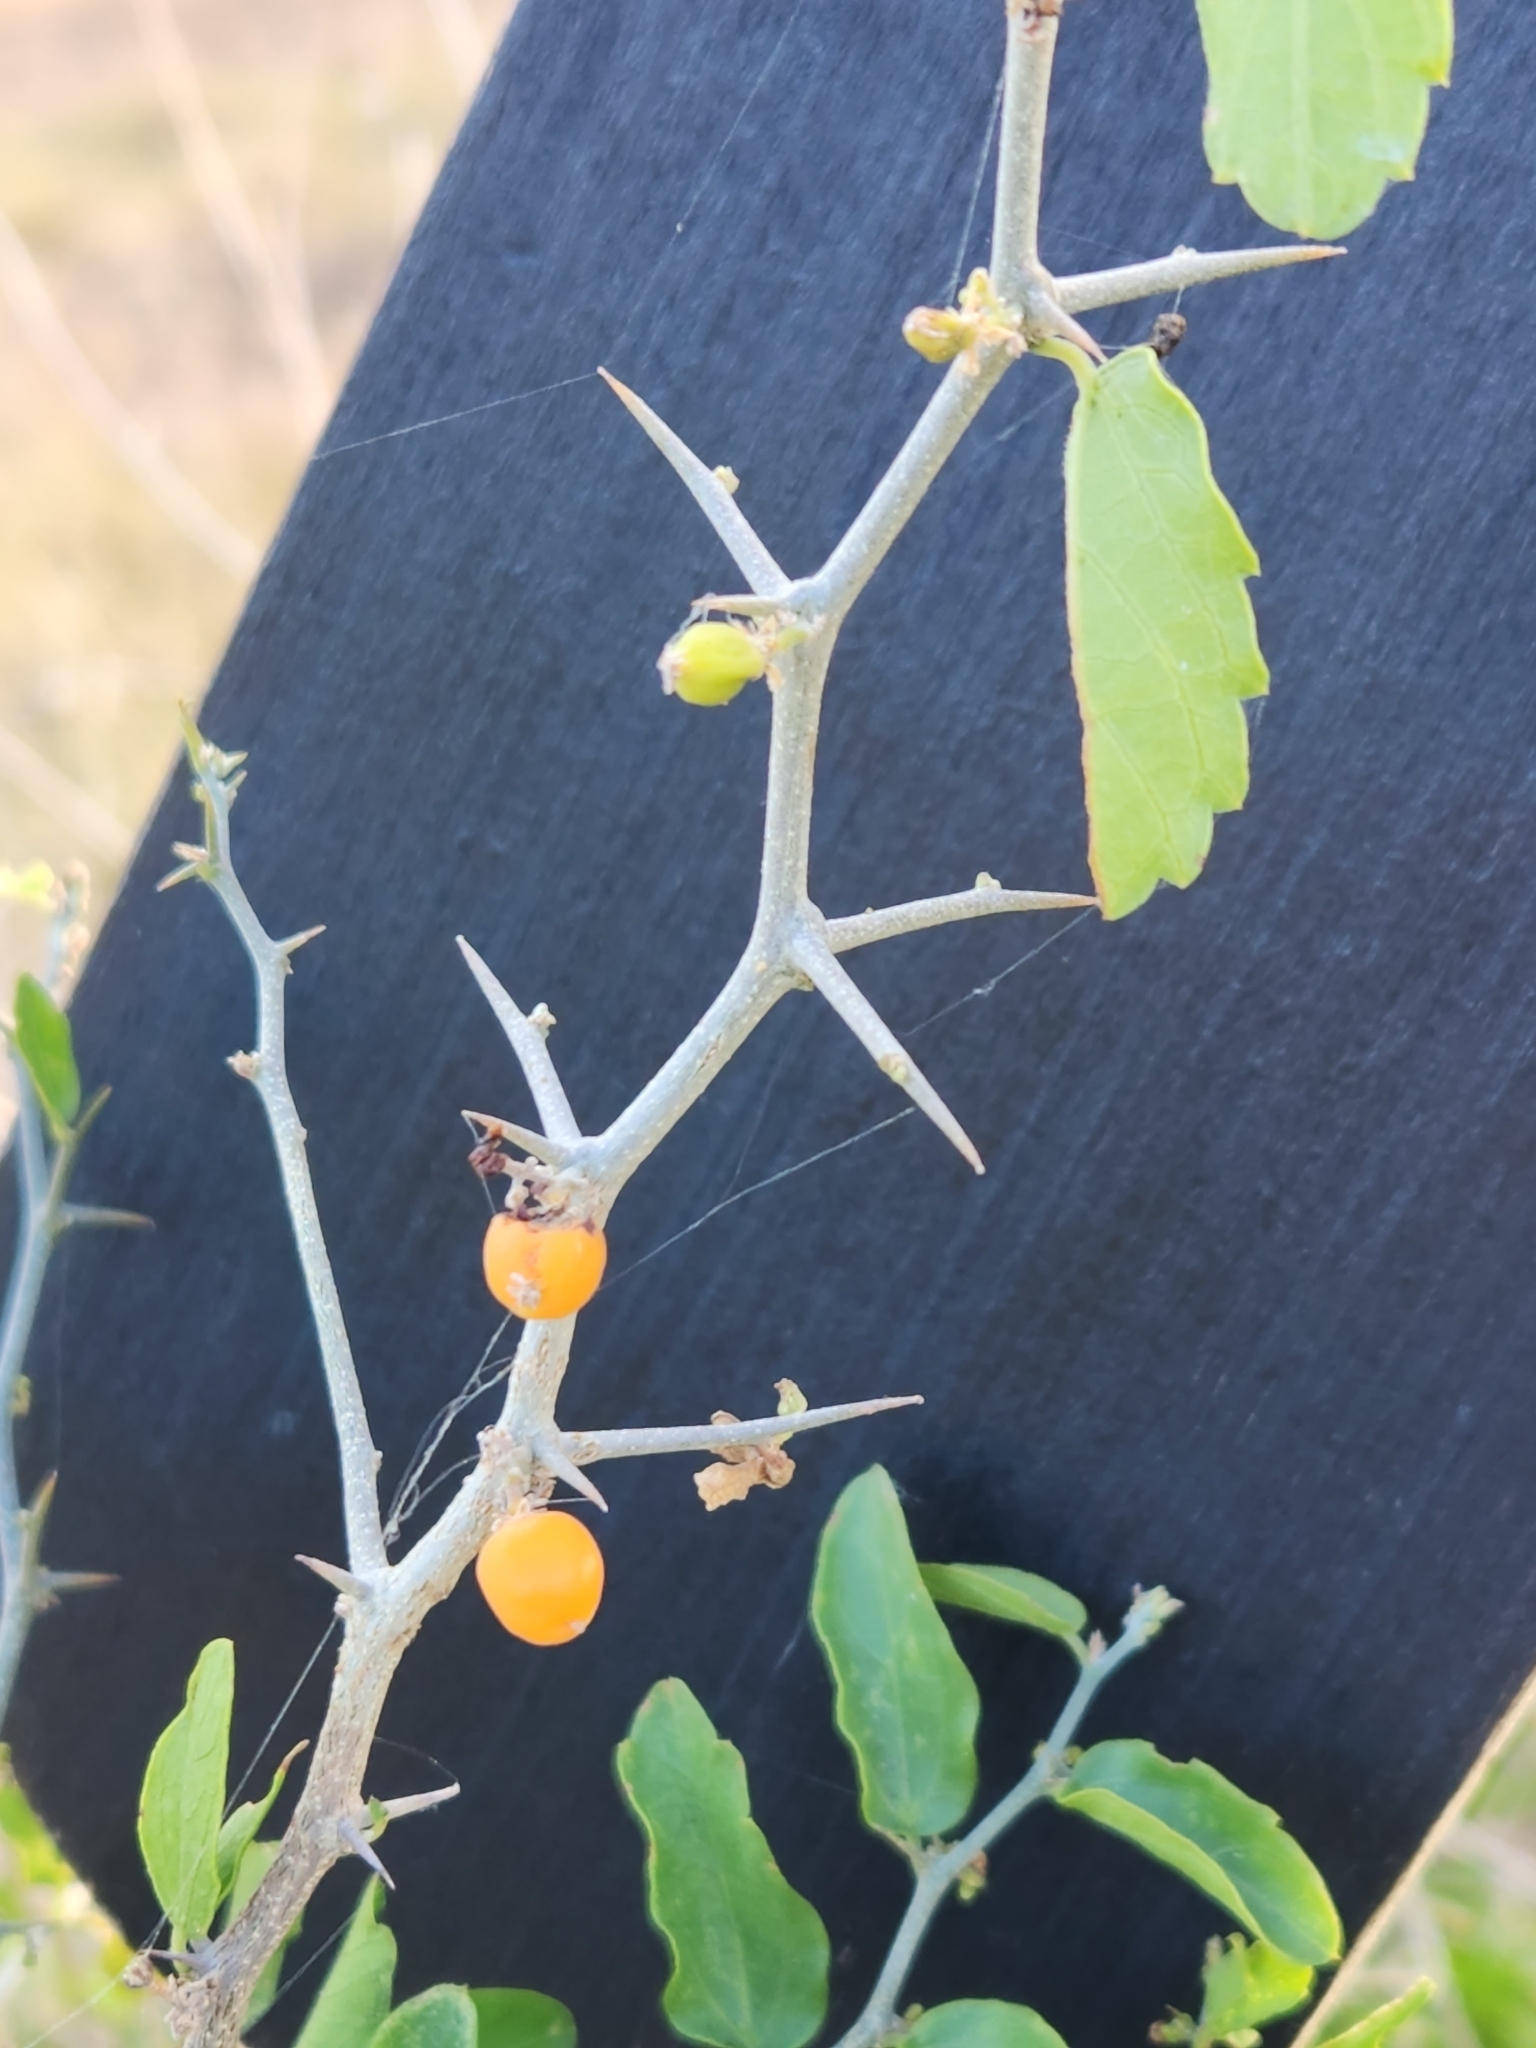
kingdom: Plantae
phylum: Tracheophyta
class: Magnoliopsida
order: Rosales
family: Cannabaceae
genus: Celtis
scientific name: Celtis pallida
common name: Desert hackberry
